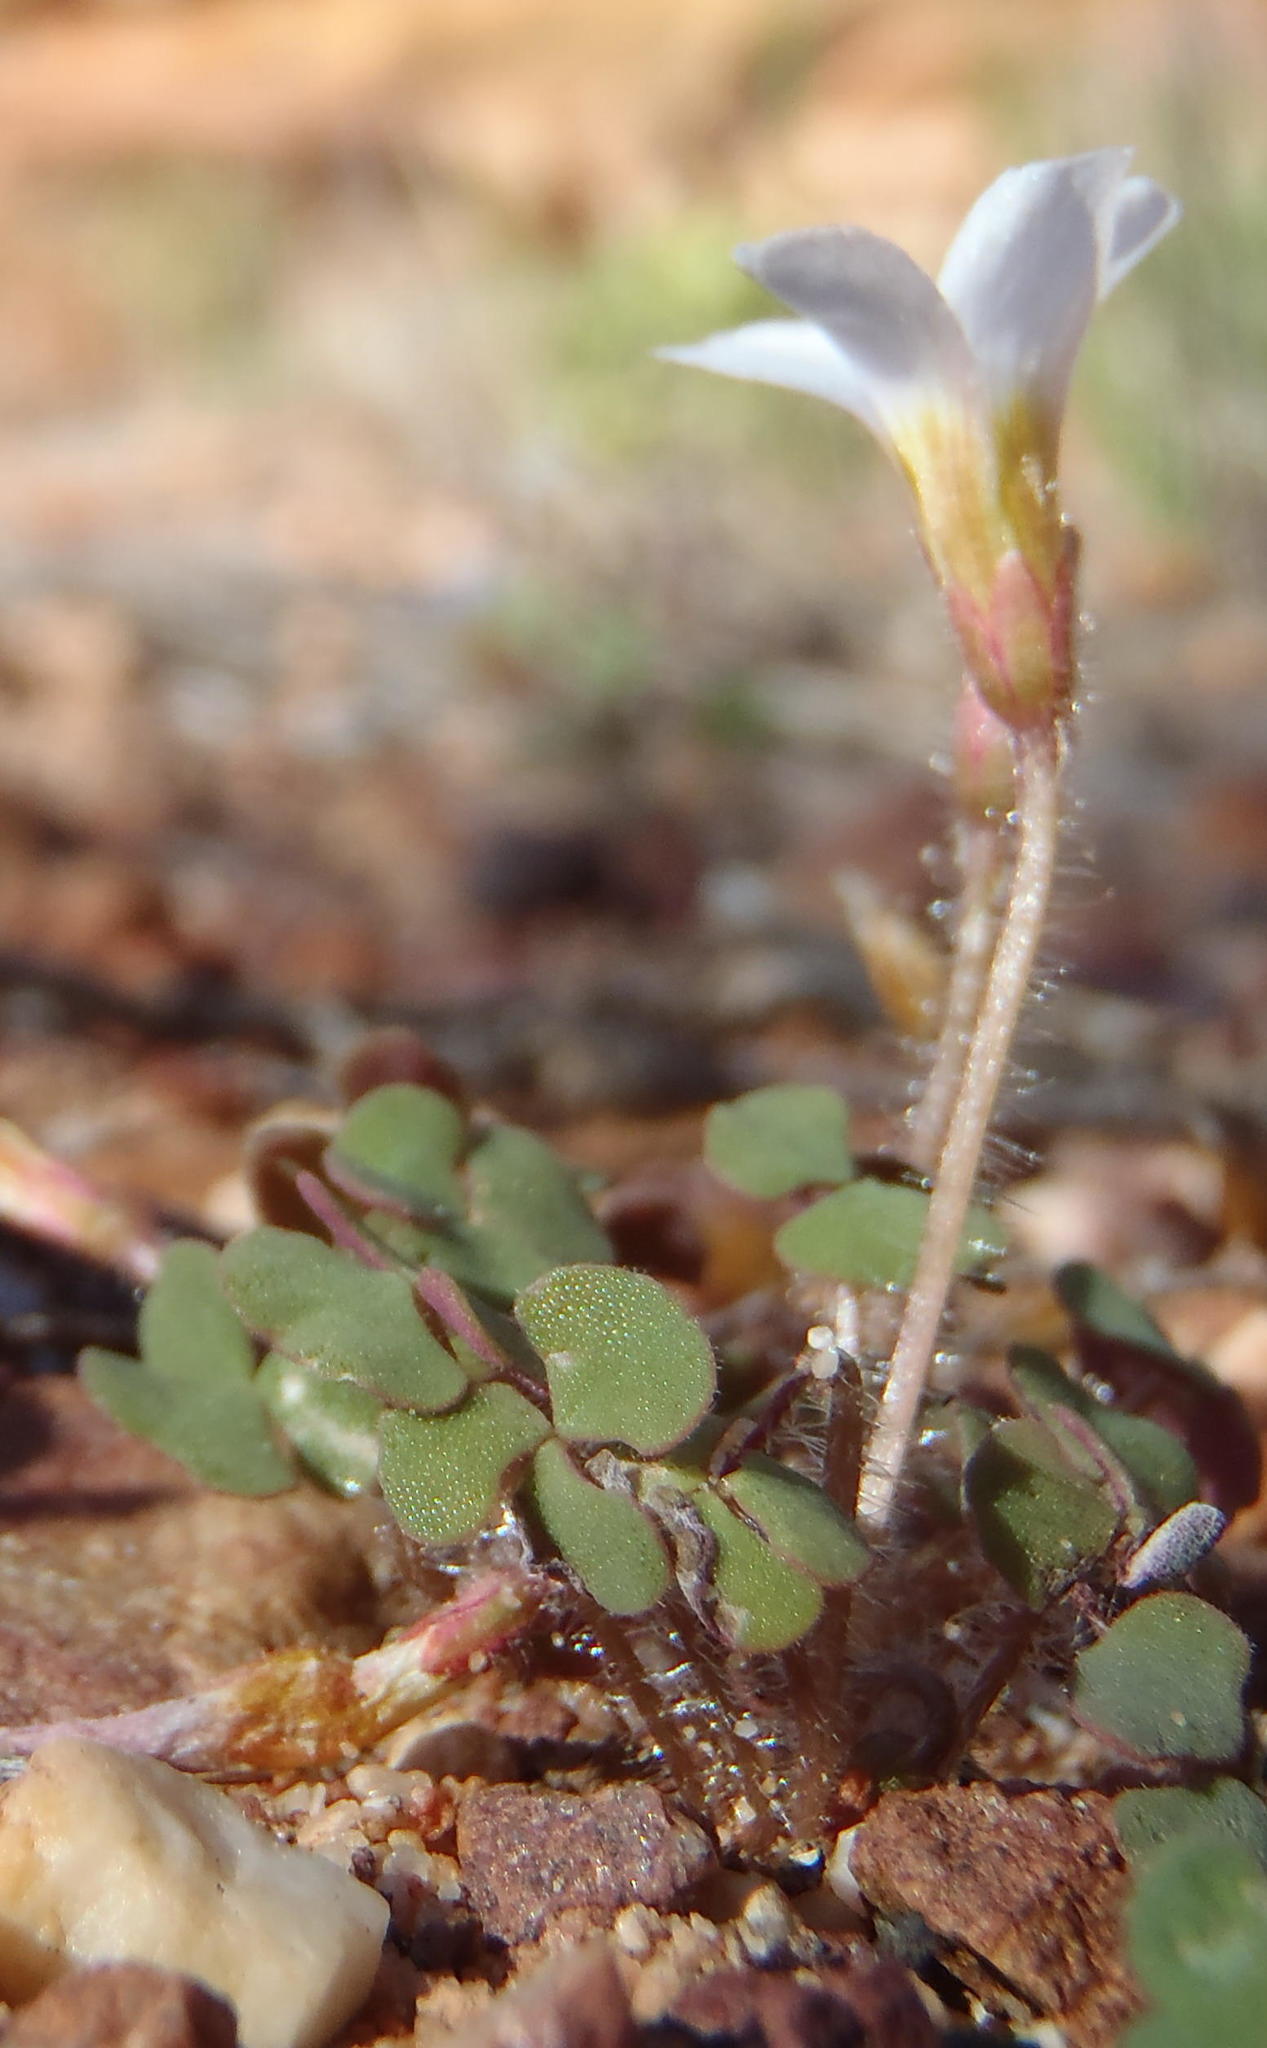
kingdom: Plantae
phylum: Tracheophyta
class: Magnoliopsida
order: Oxalidales
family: Oxalidaceae
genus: Oxalis
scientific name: Oxalis punctata
